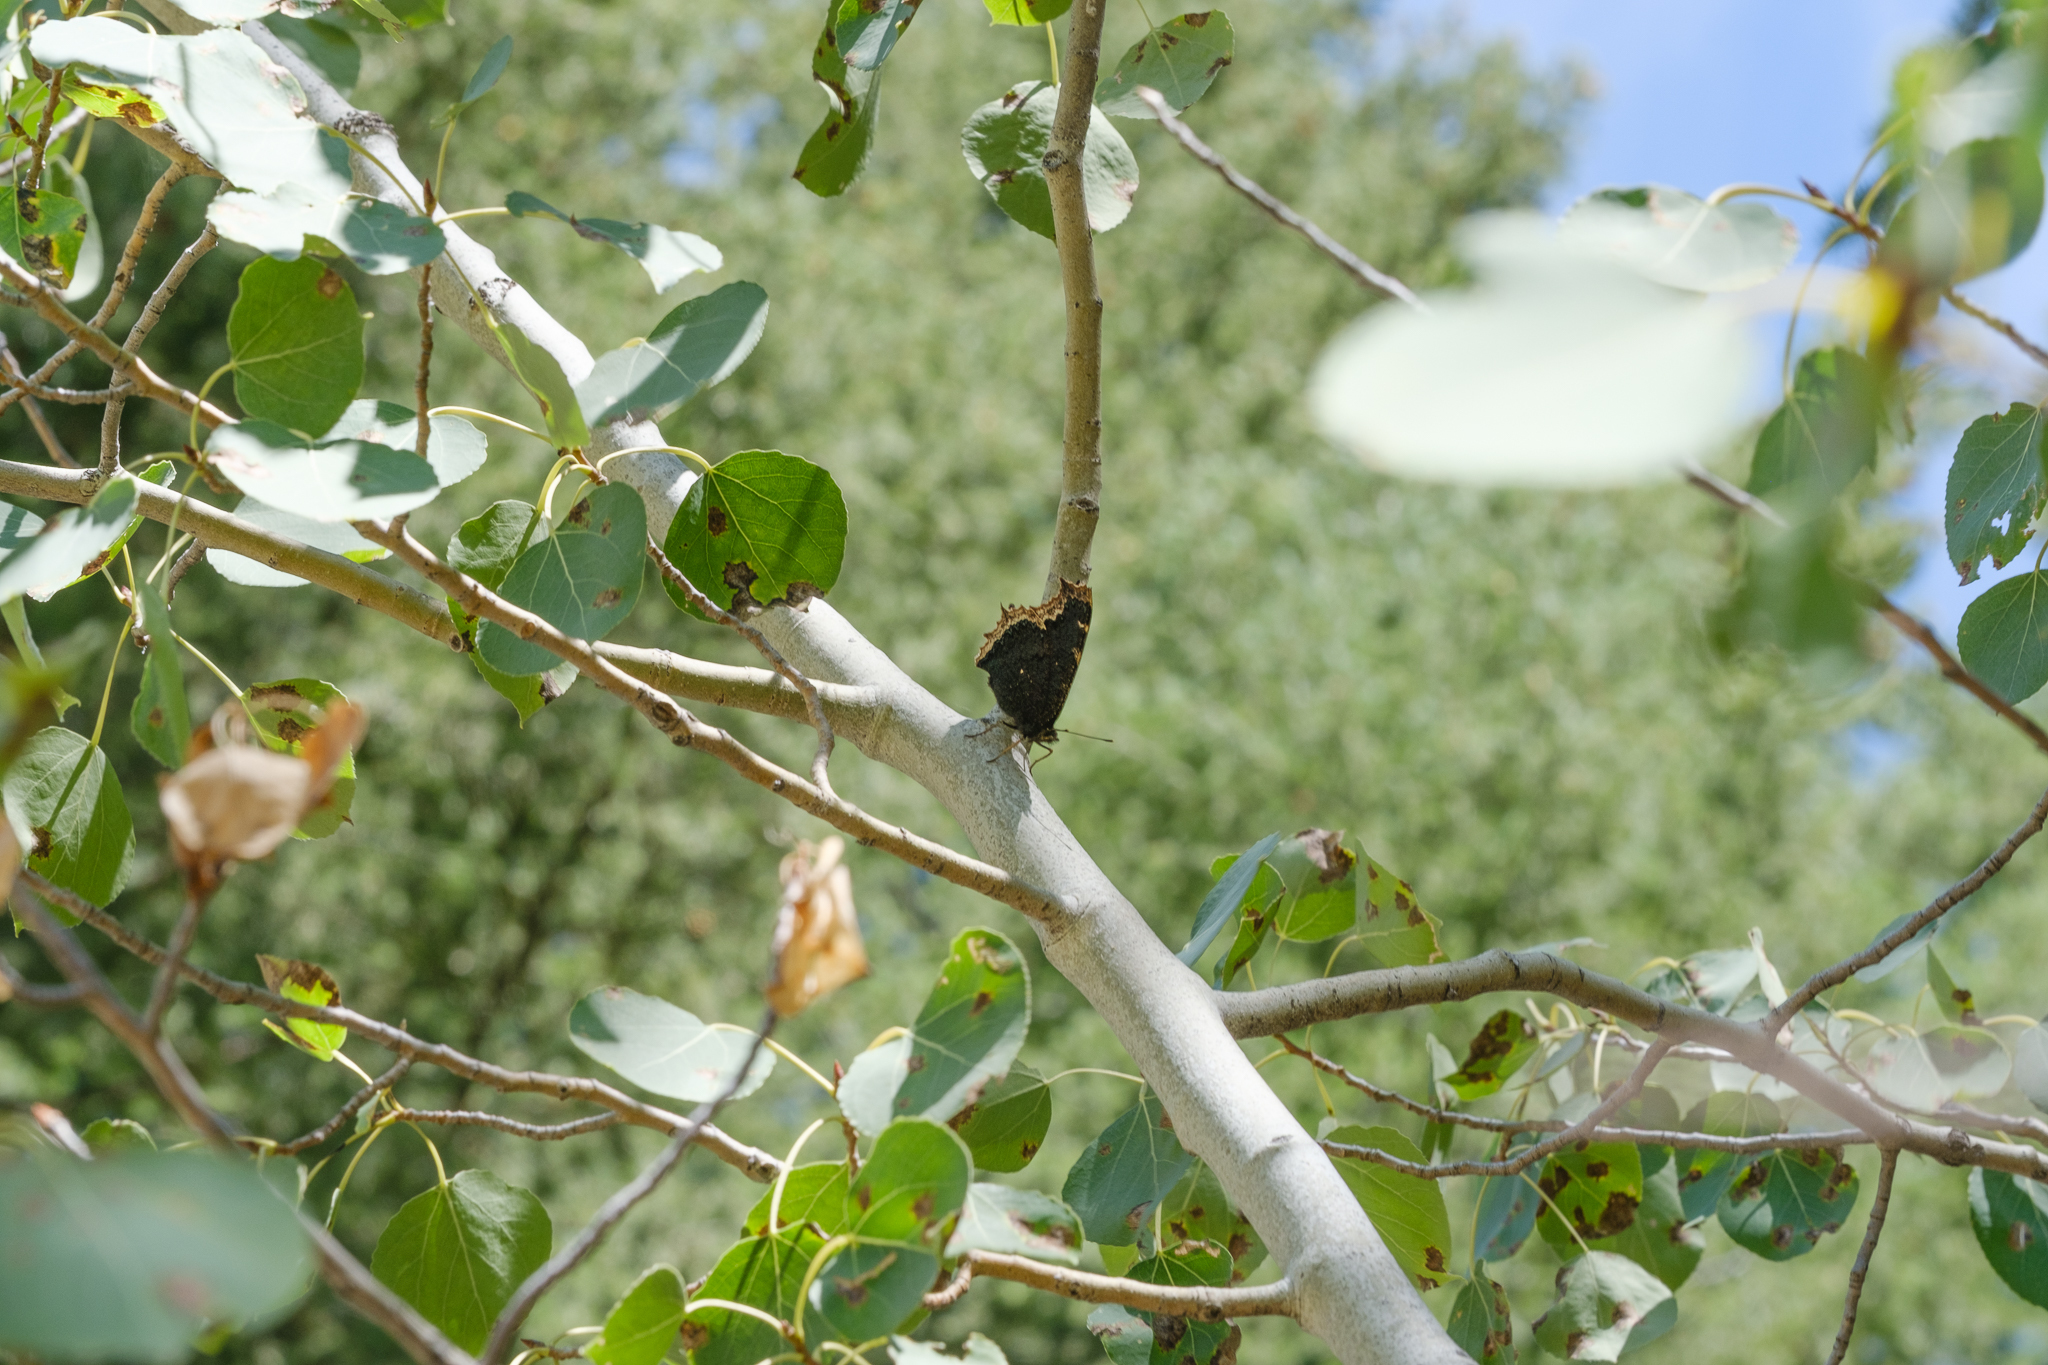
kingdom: Animalia
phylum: Arthropoda
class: Insecta
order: Lepidoptera
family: Nymphalidae
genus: Nymphalis
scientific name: Nymphalis antiopa
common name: Camberwell beauty
